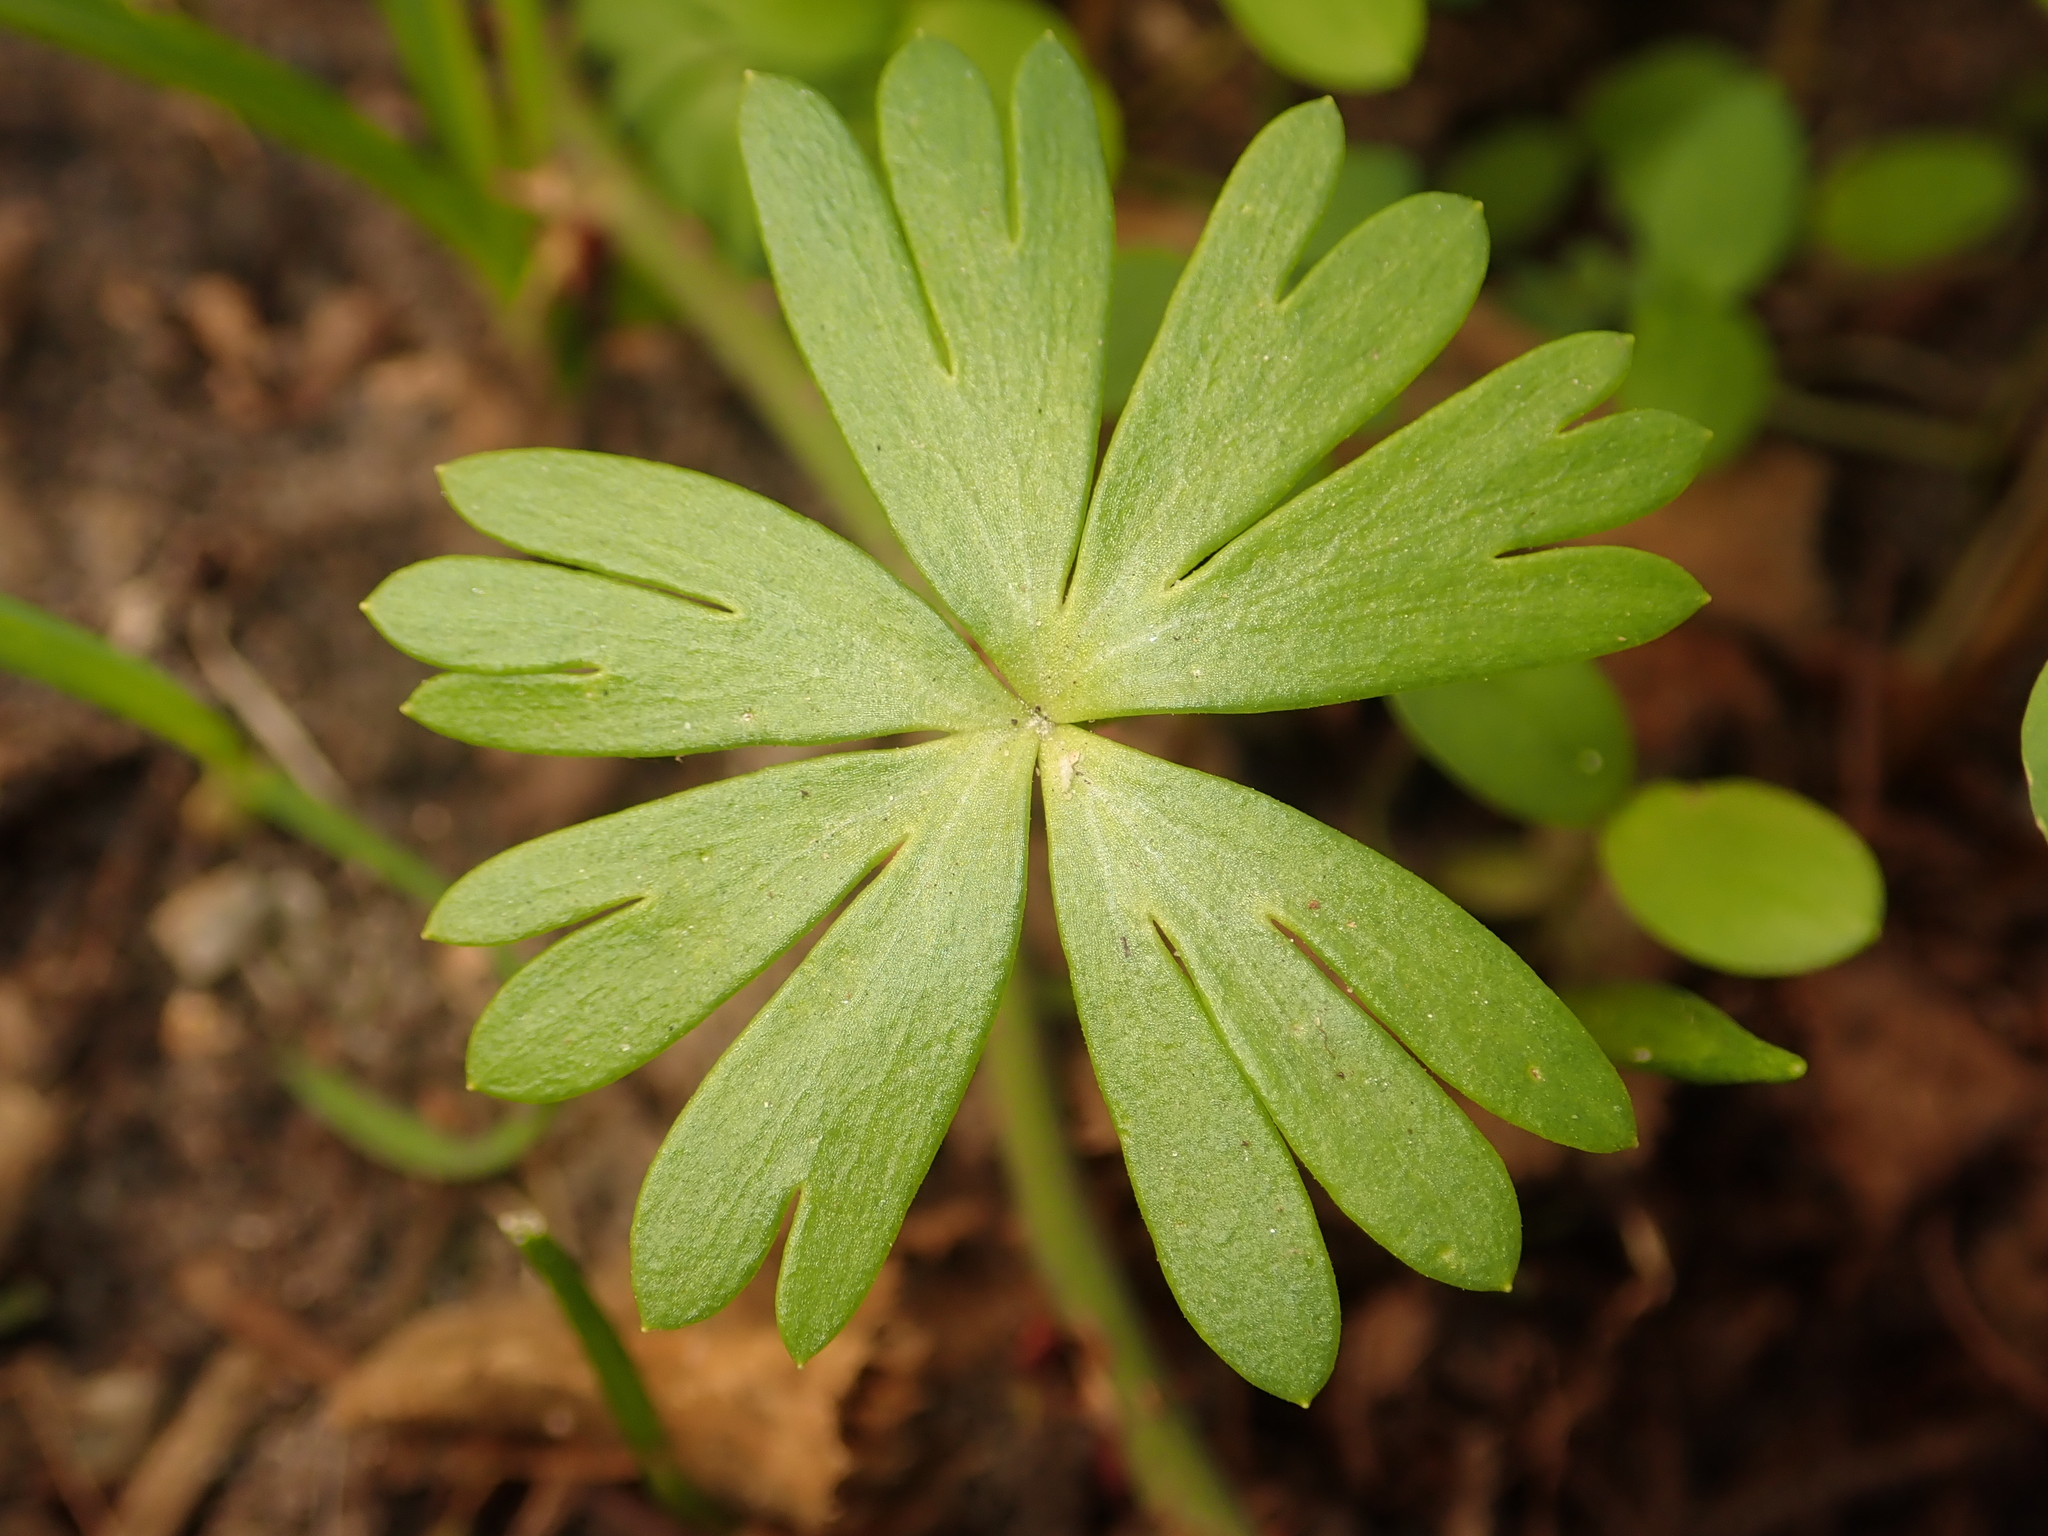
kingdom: Plantae
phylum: Tracheophyta
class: Magnoliopsida
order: Ranunculales
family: Ranunculaceae
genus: Eranthis
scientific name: Eranthis hyemalis
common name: Winter aconite
